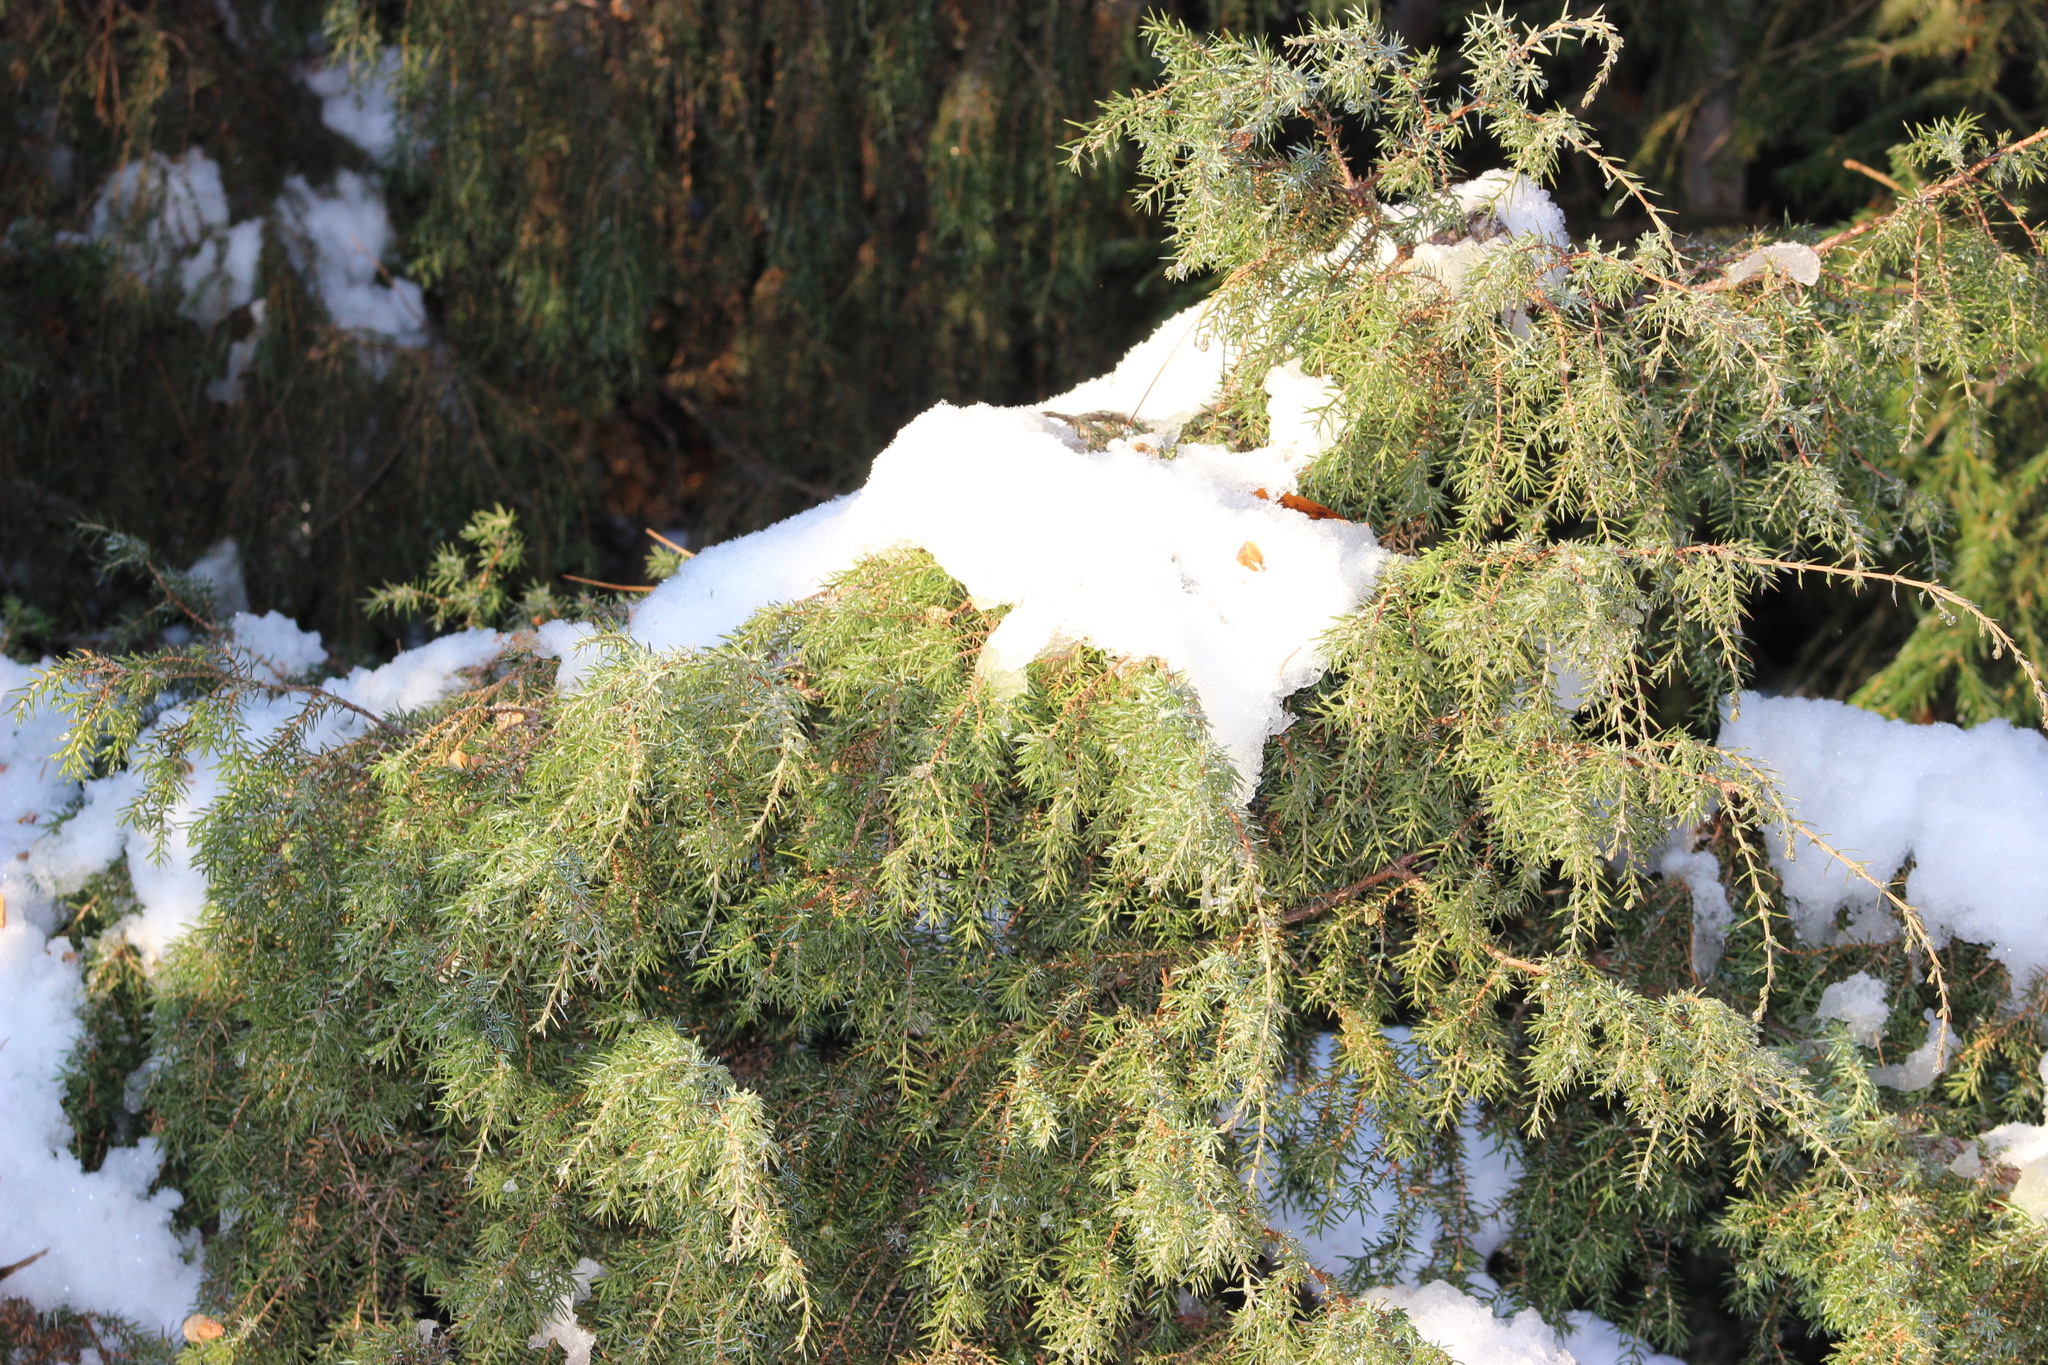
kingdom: Plantae
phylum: Tracheophyta
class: Pinopsida
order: Pinales
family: Cupressaceae
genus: Juniperus
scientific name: Juniperus communis
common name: Common juniper
